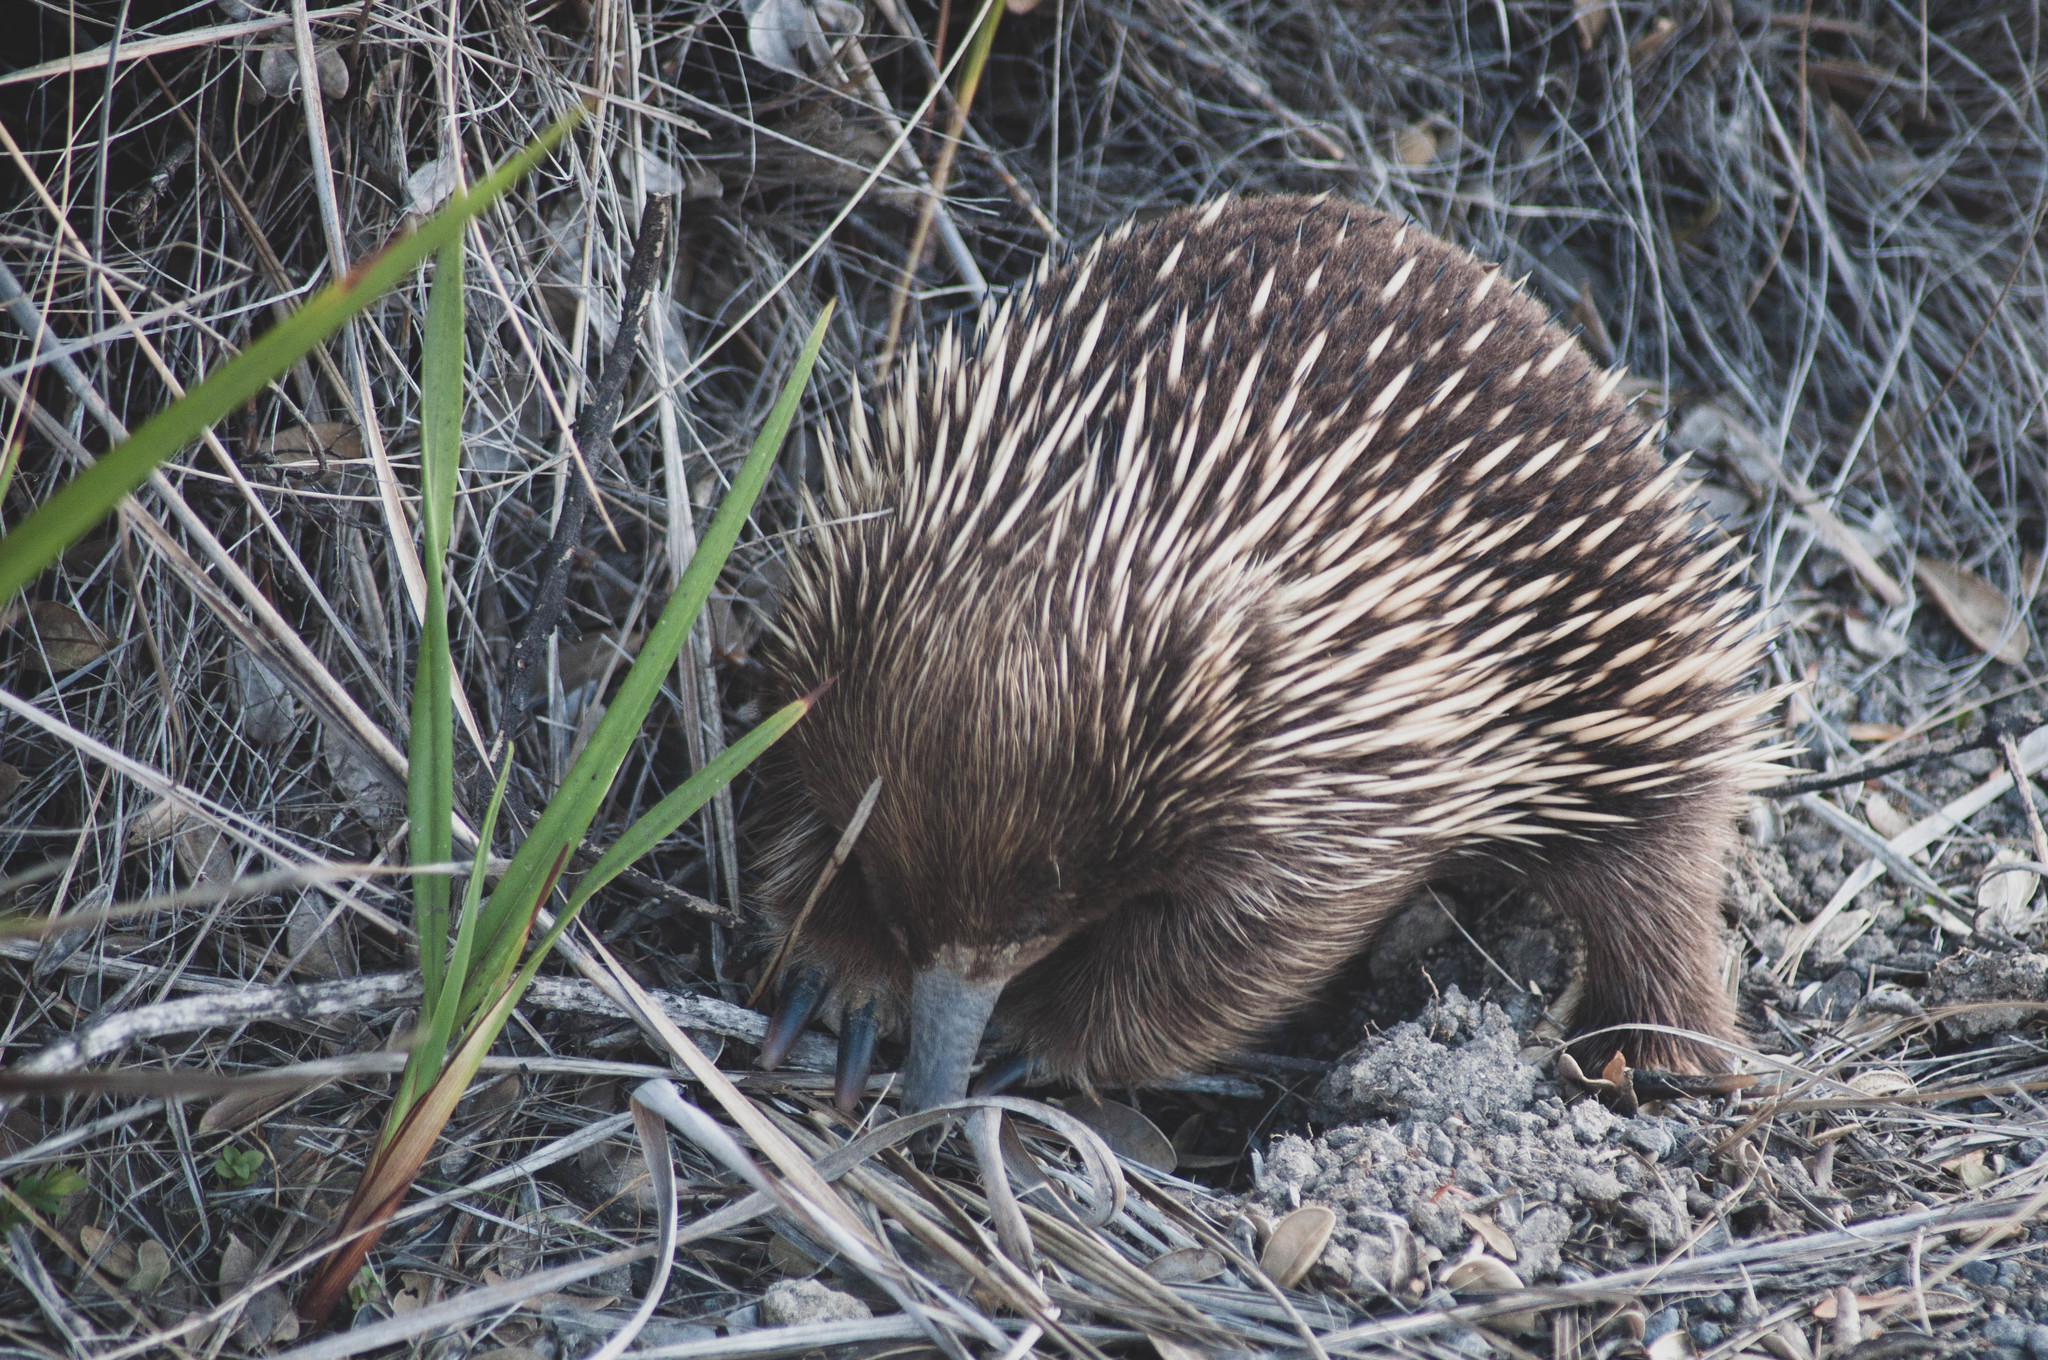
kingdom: Animalia
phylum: Chordata
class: Mammalia
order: Monotremata
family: Tachyglossidae
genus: Tachyglossus
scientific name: Tachyglossus aculeatus
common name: Short-beaked echidna
